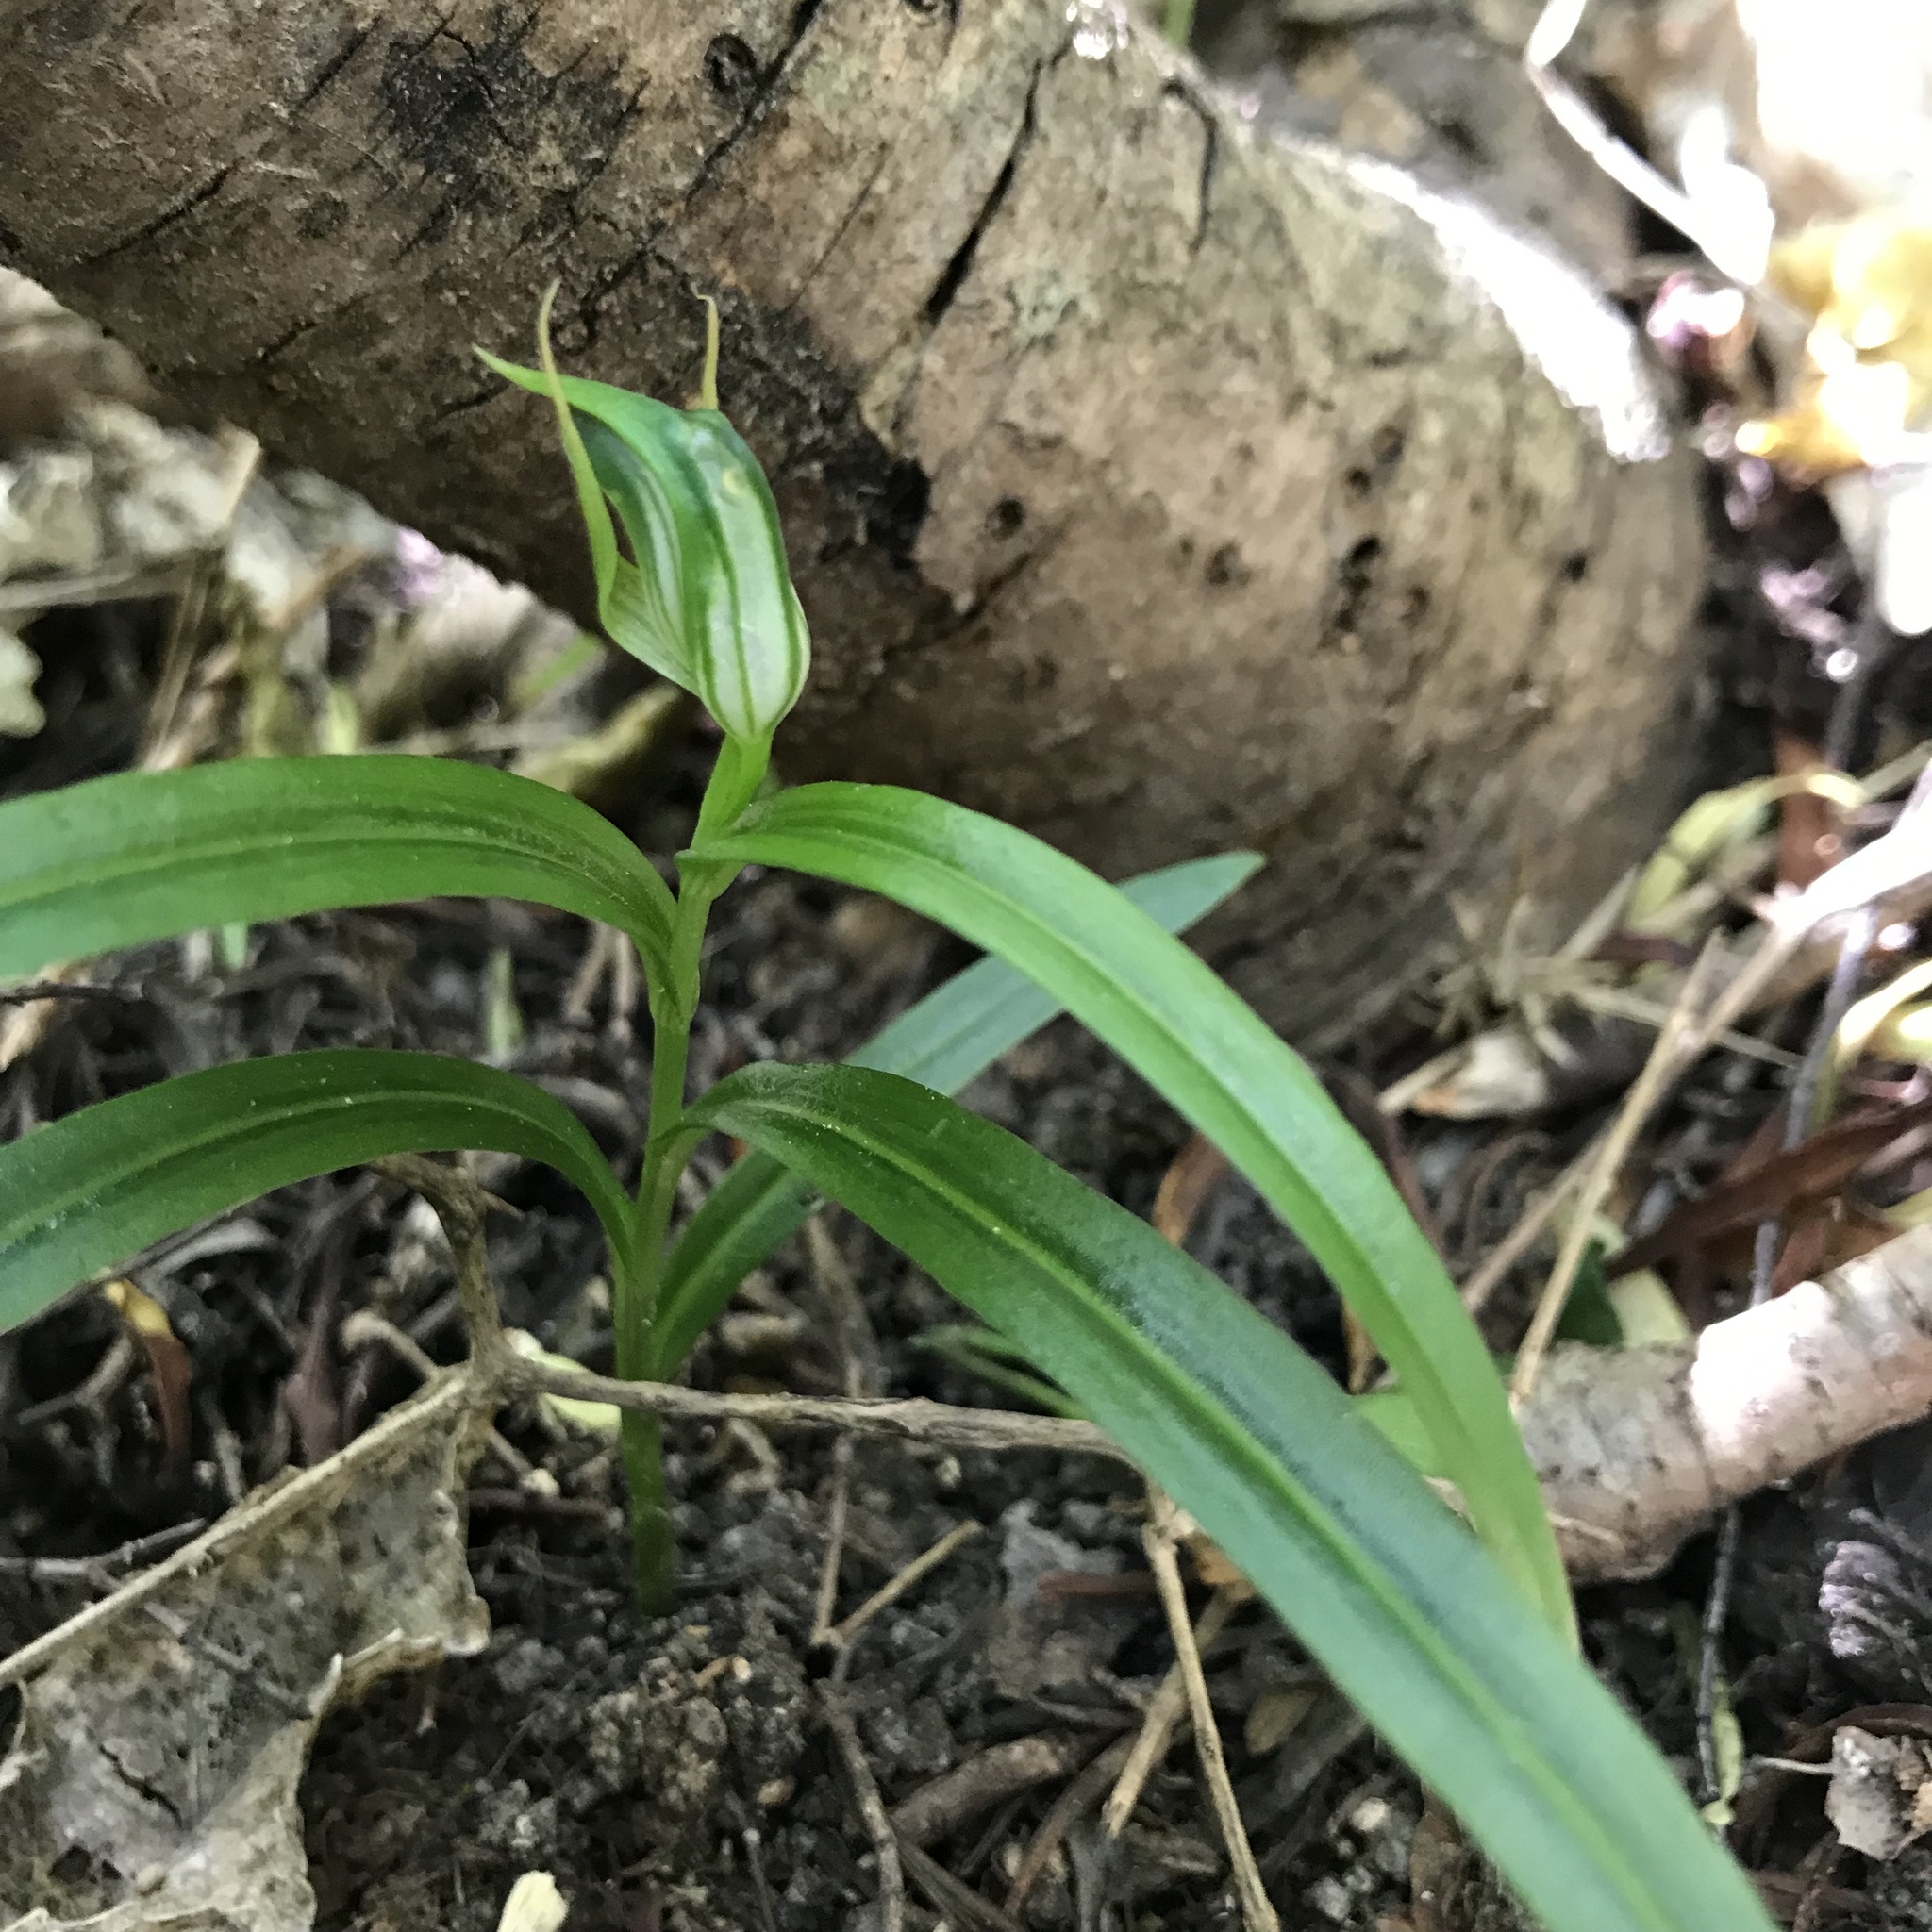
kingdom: Plantae
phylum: Tracheophyta
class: Liliopsida
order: Asparagales
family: Orchidaceae
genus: Pterostylis
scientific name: Pterostylis montana
